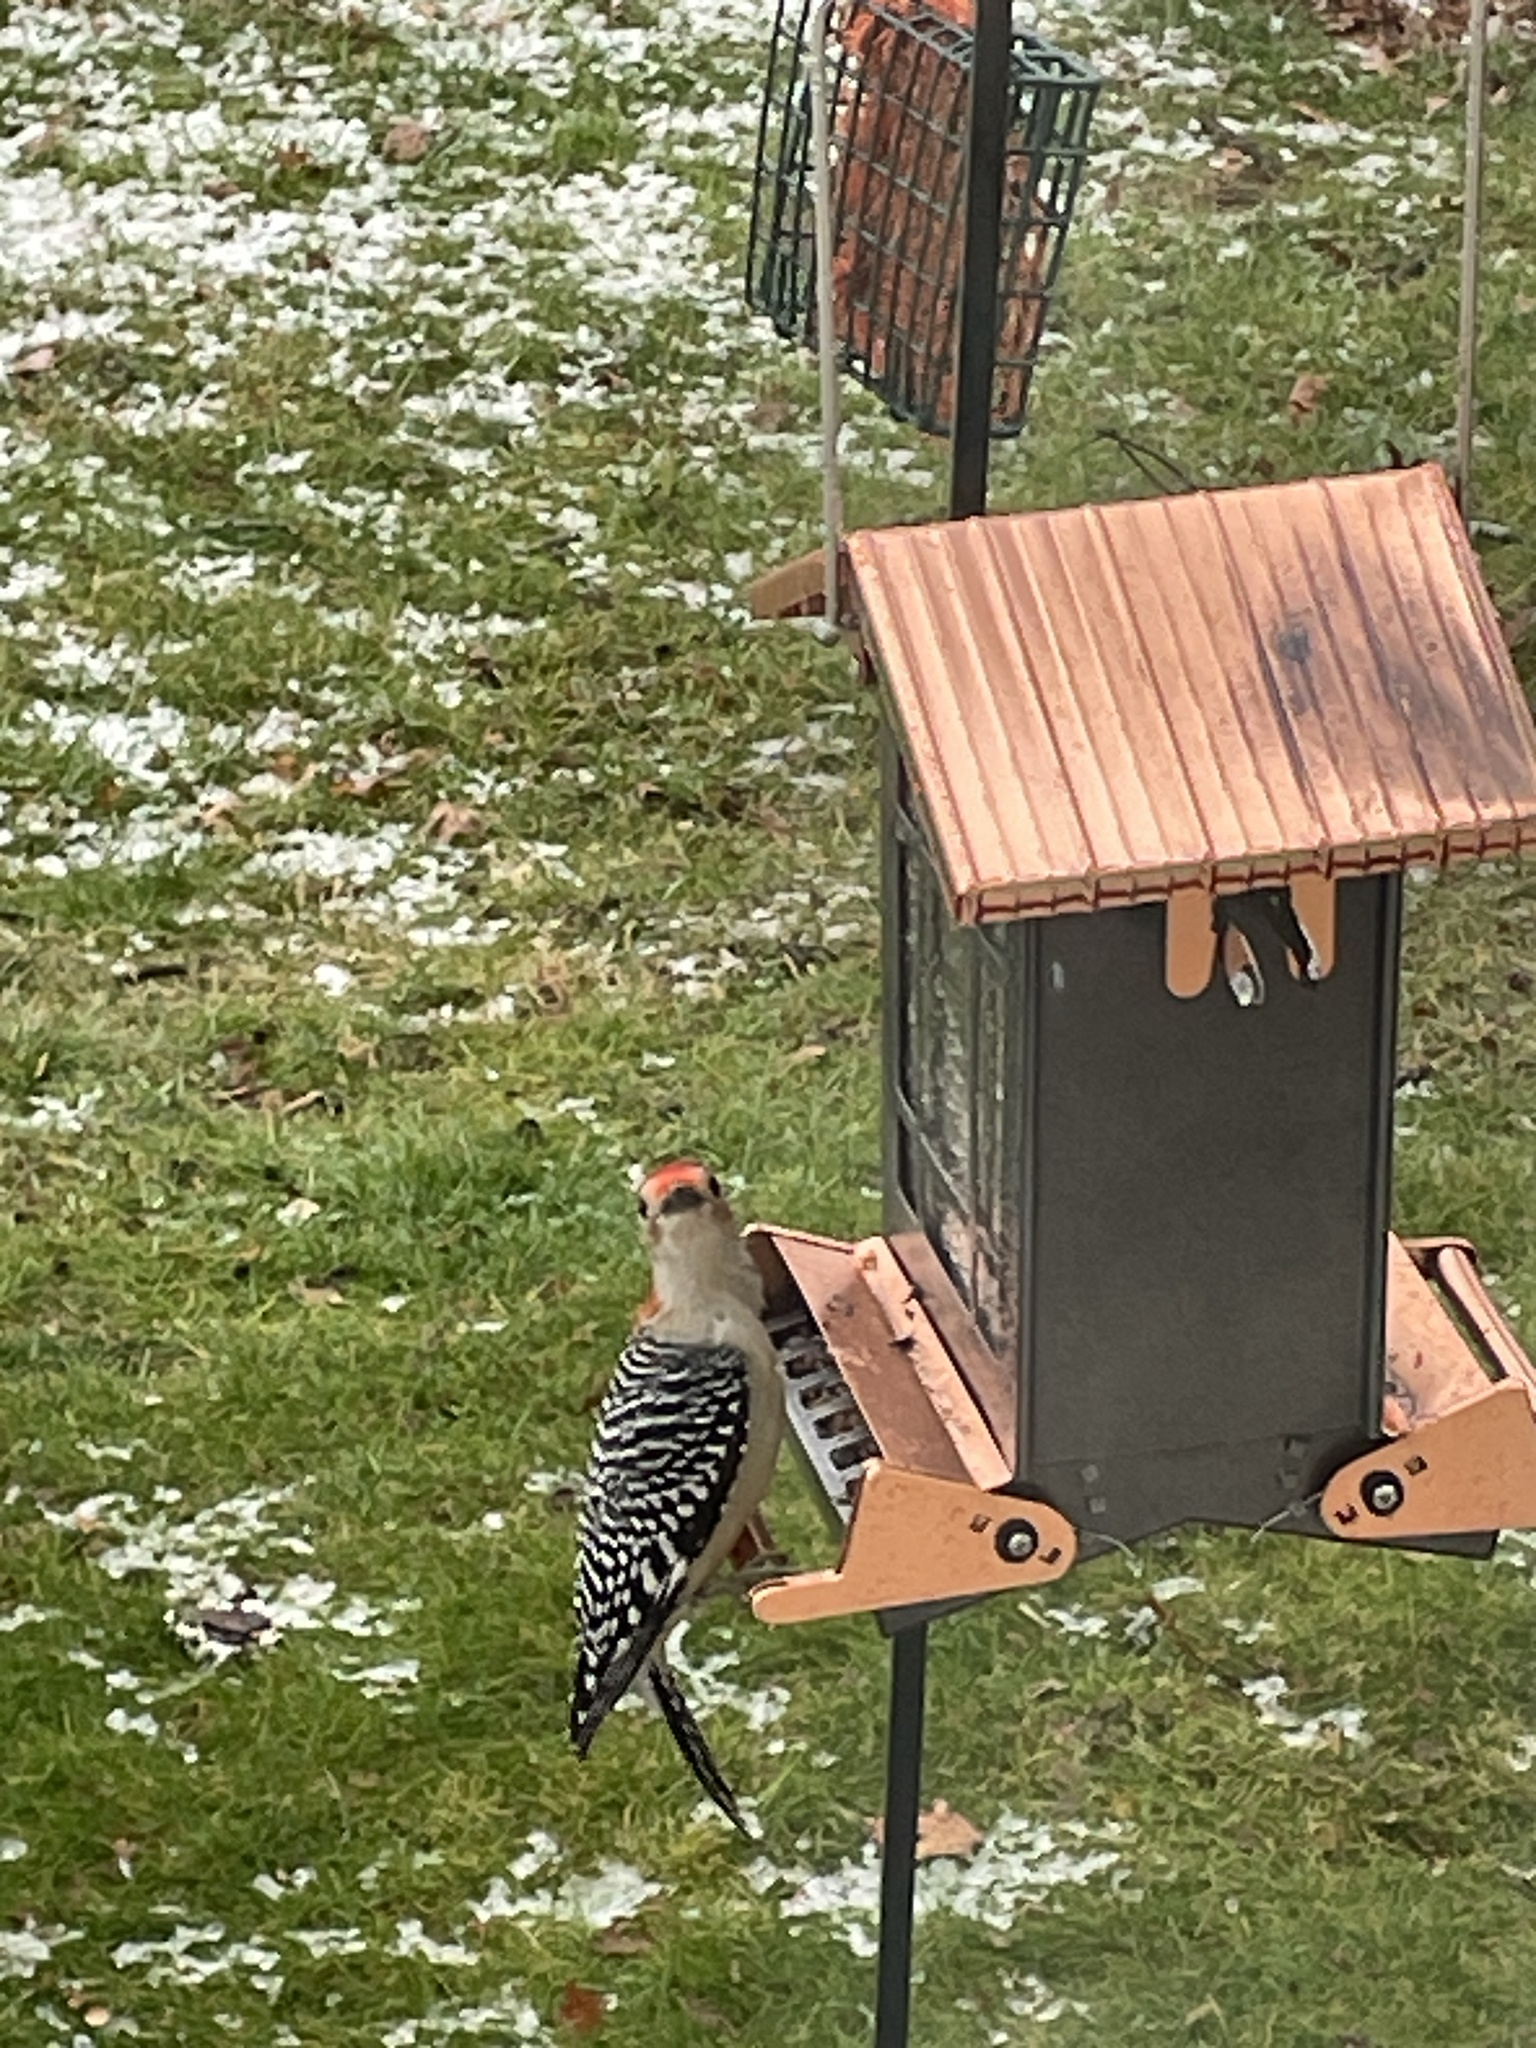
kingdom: Animalia
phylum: Chordata
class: Aves
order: Piciformes
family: Picidae
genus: Melanerpes
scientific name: Melanerpes carolinus
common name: Red-bellied woodpecker
